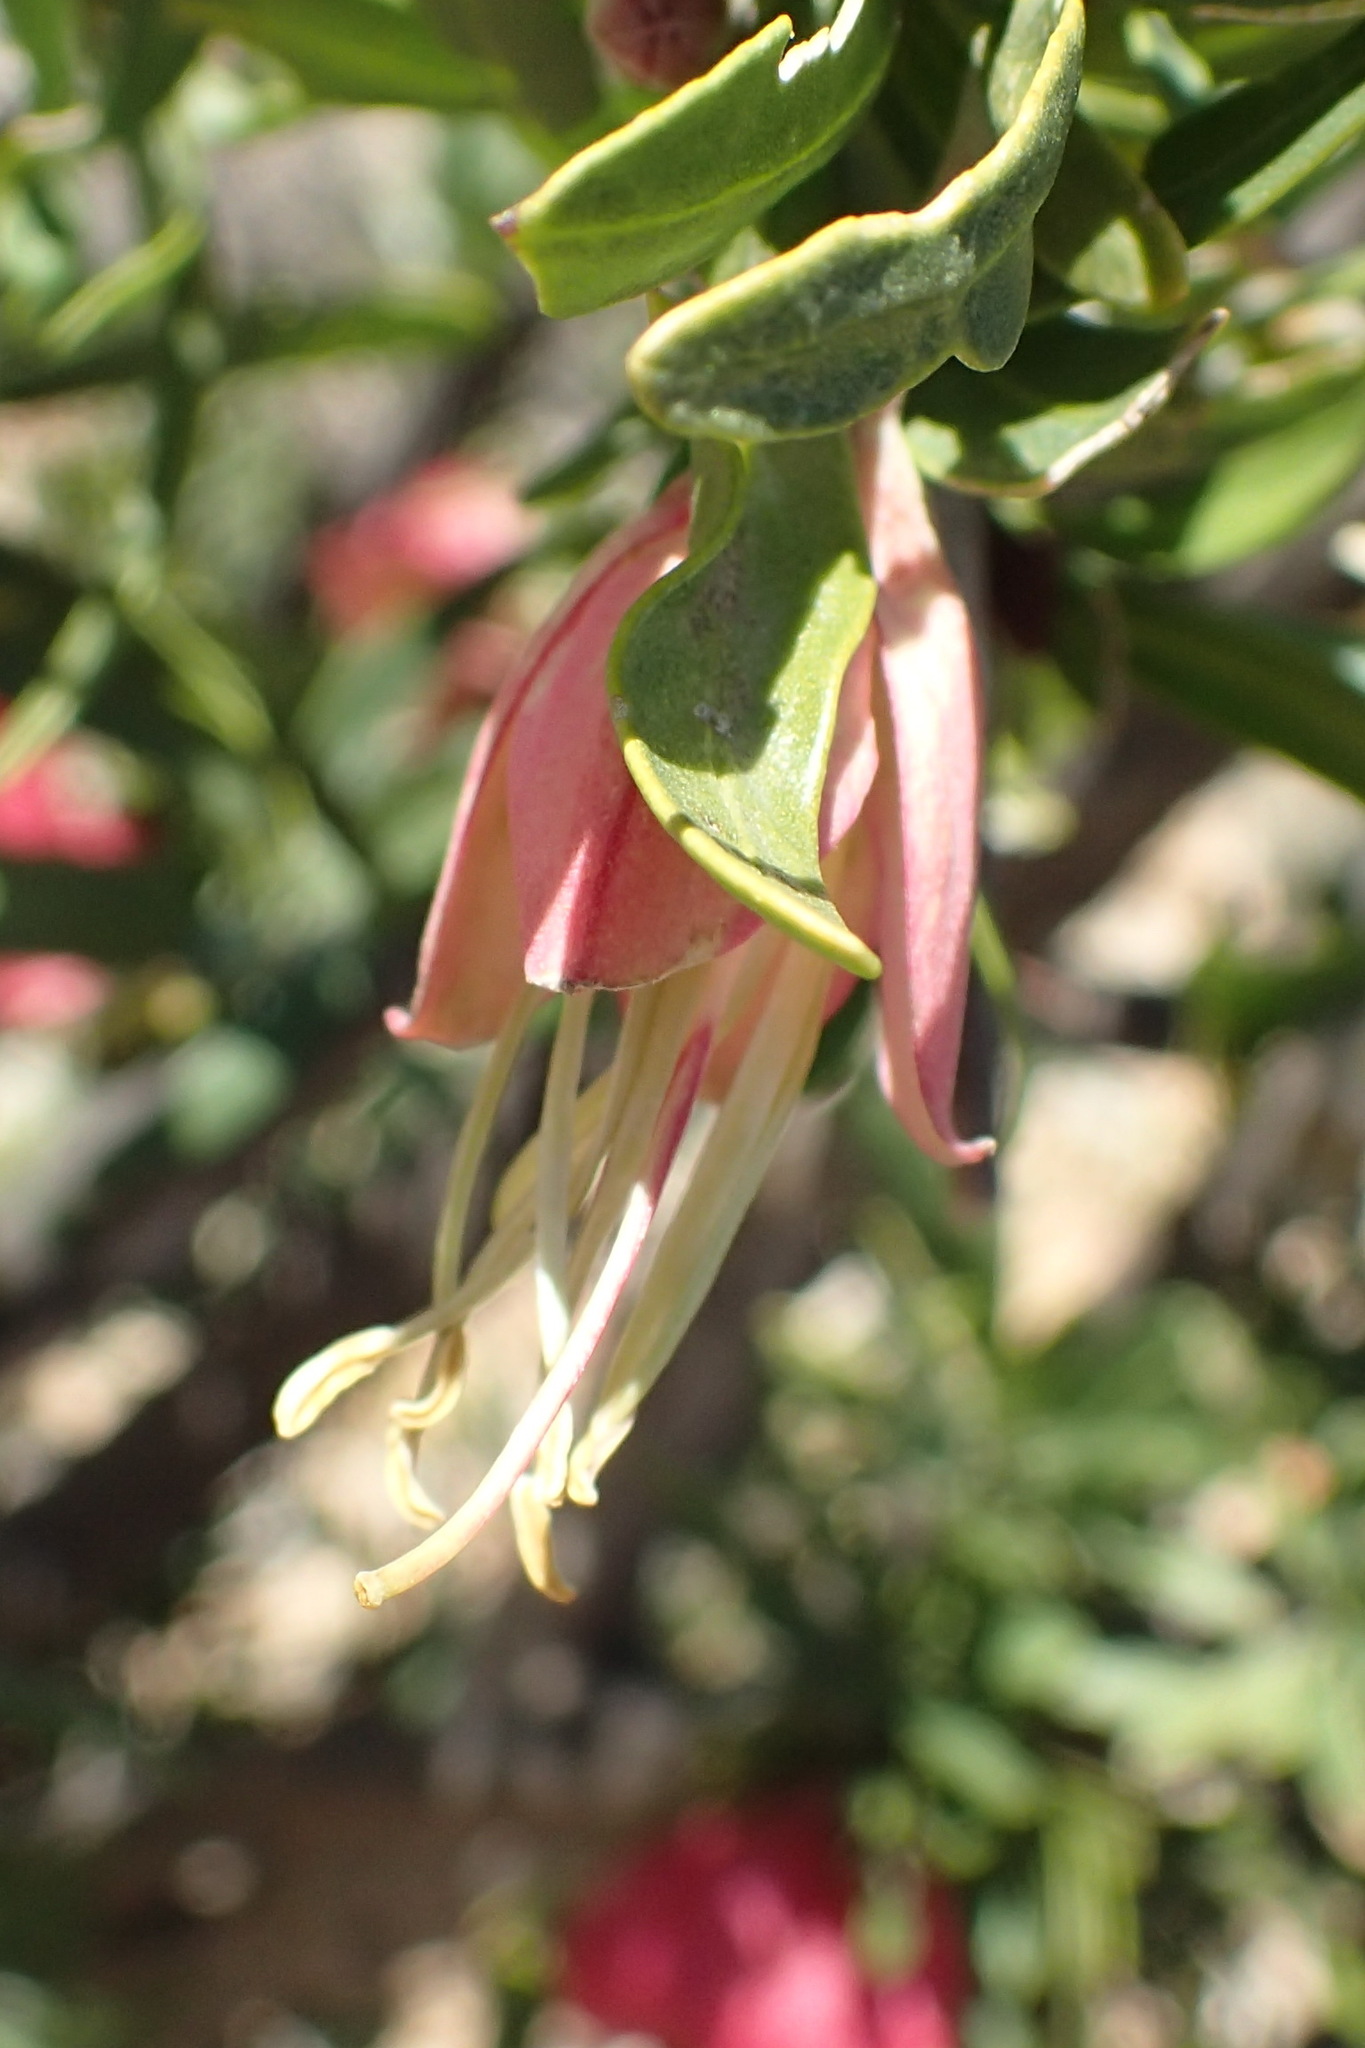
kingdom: Plantae
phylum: Tracheophyta
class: Magnoliopsida
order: Sapindales
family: Meliaceae
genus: Nymania
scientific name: Nymania capensis
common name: Chinese lantern tree
